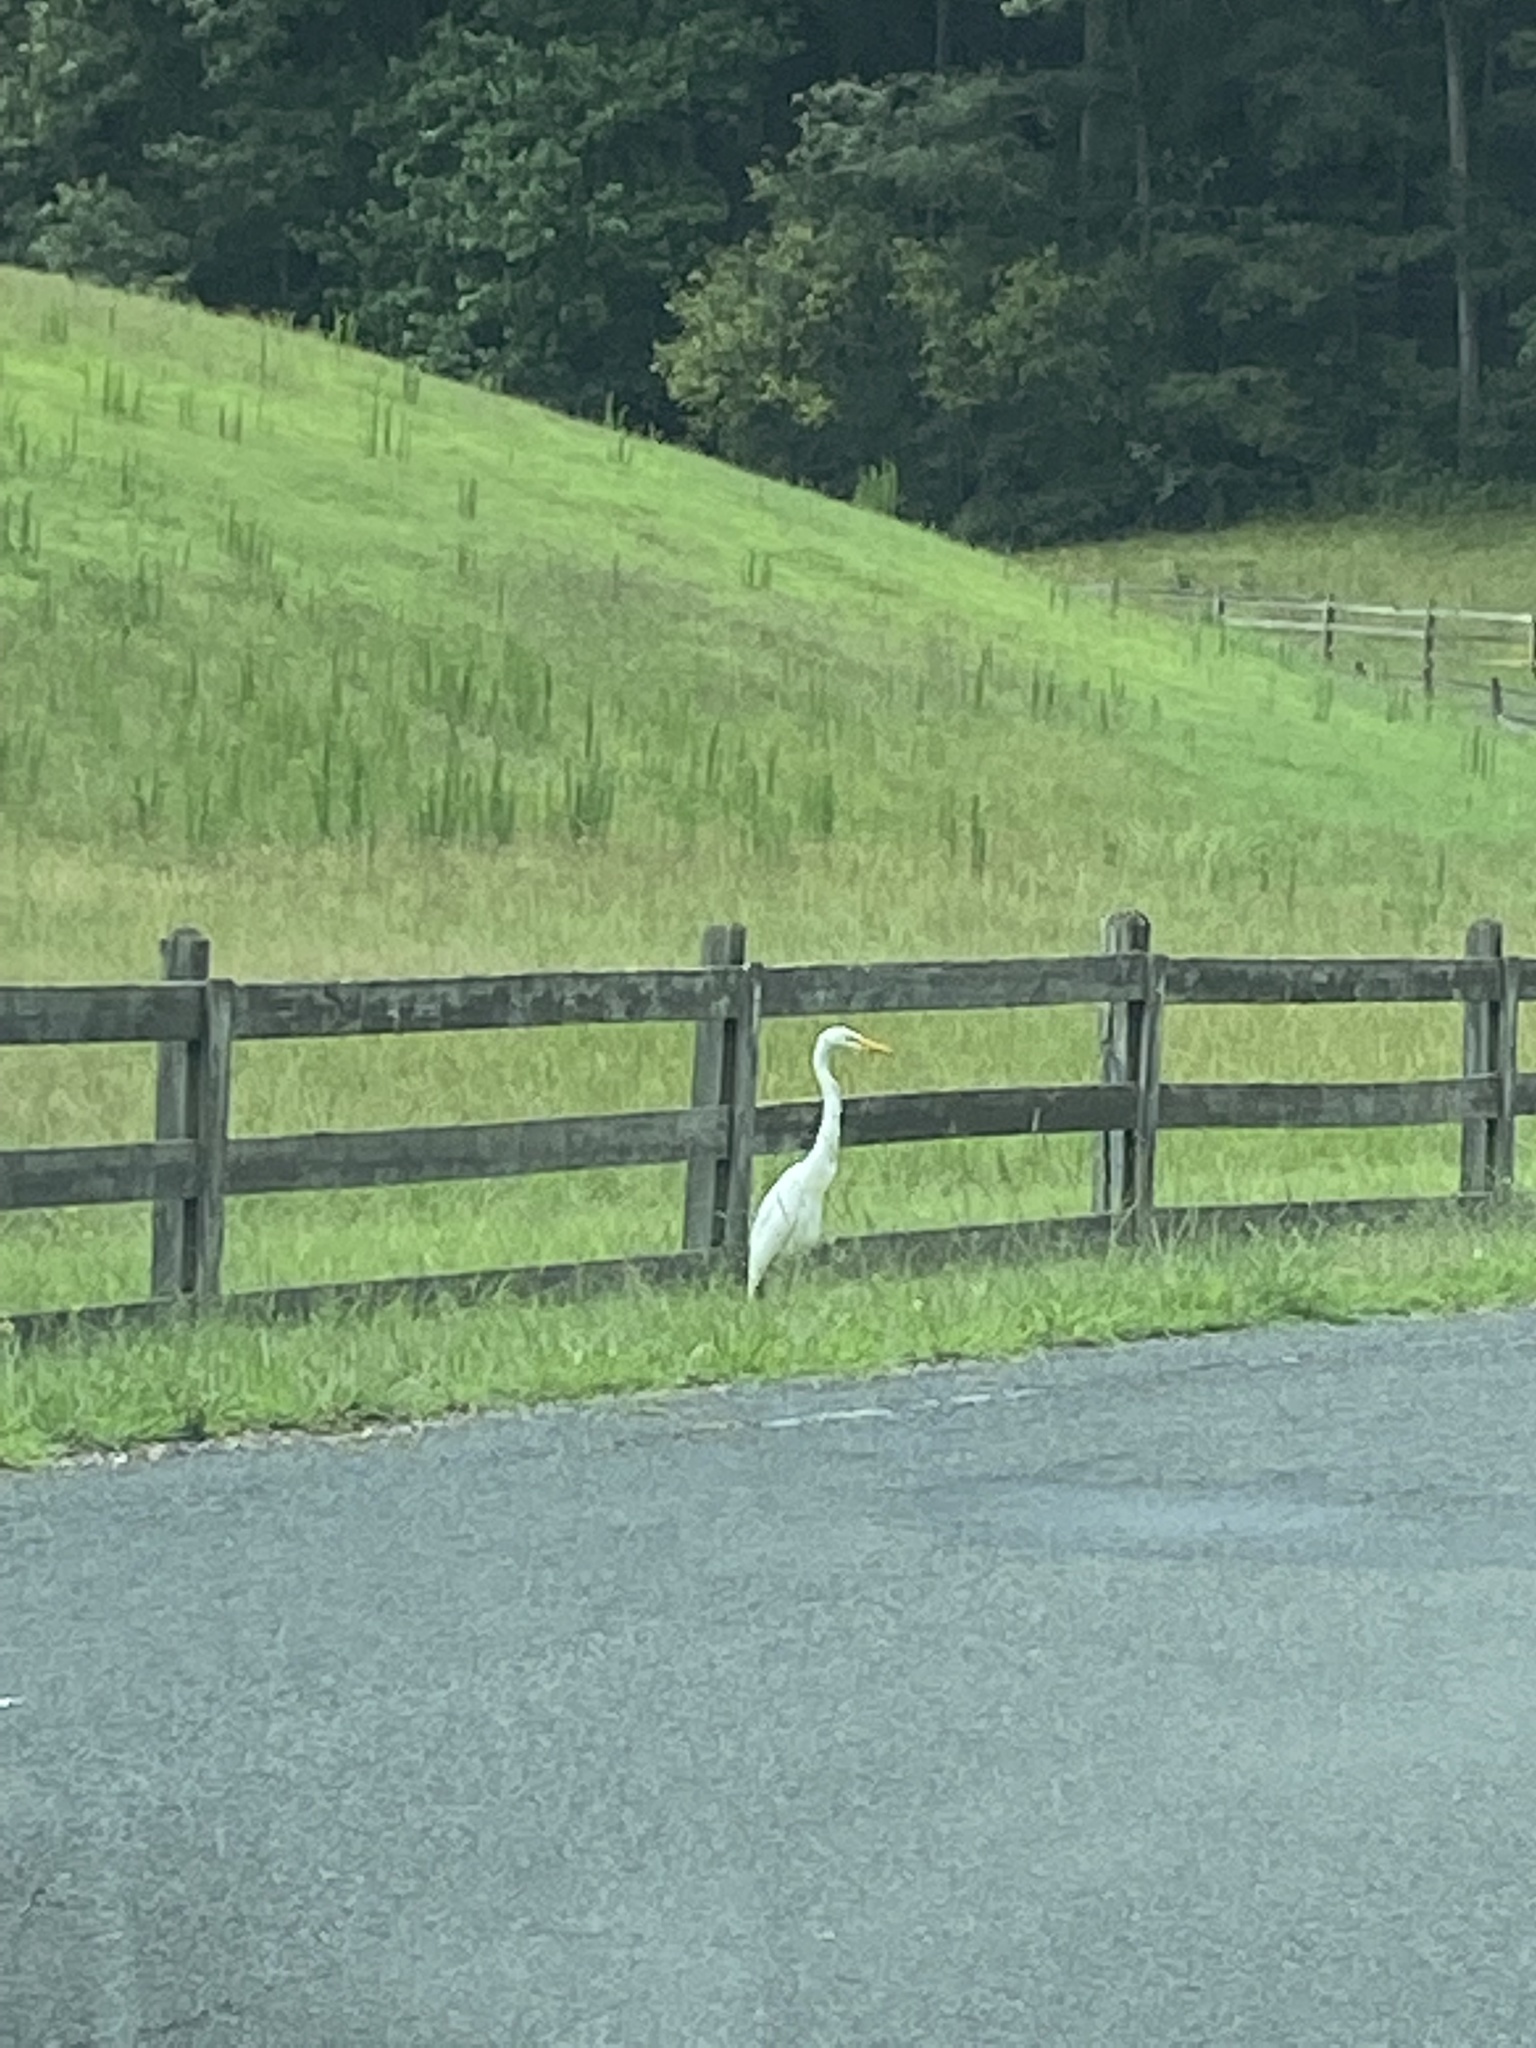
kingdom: Animalia
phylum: Chordata
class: Aves
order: Pelecaniformes
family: Ardeidae
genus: Ardea
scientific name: Ardea alba
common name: Great egret
